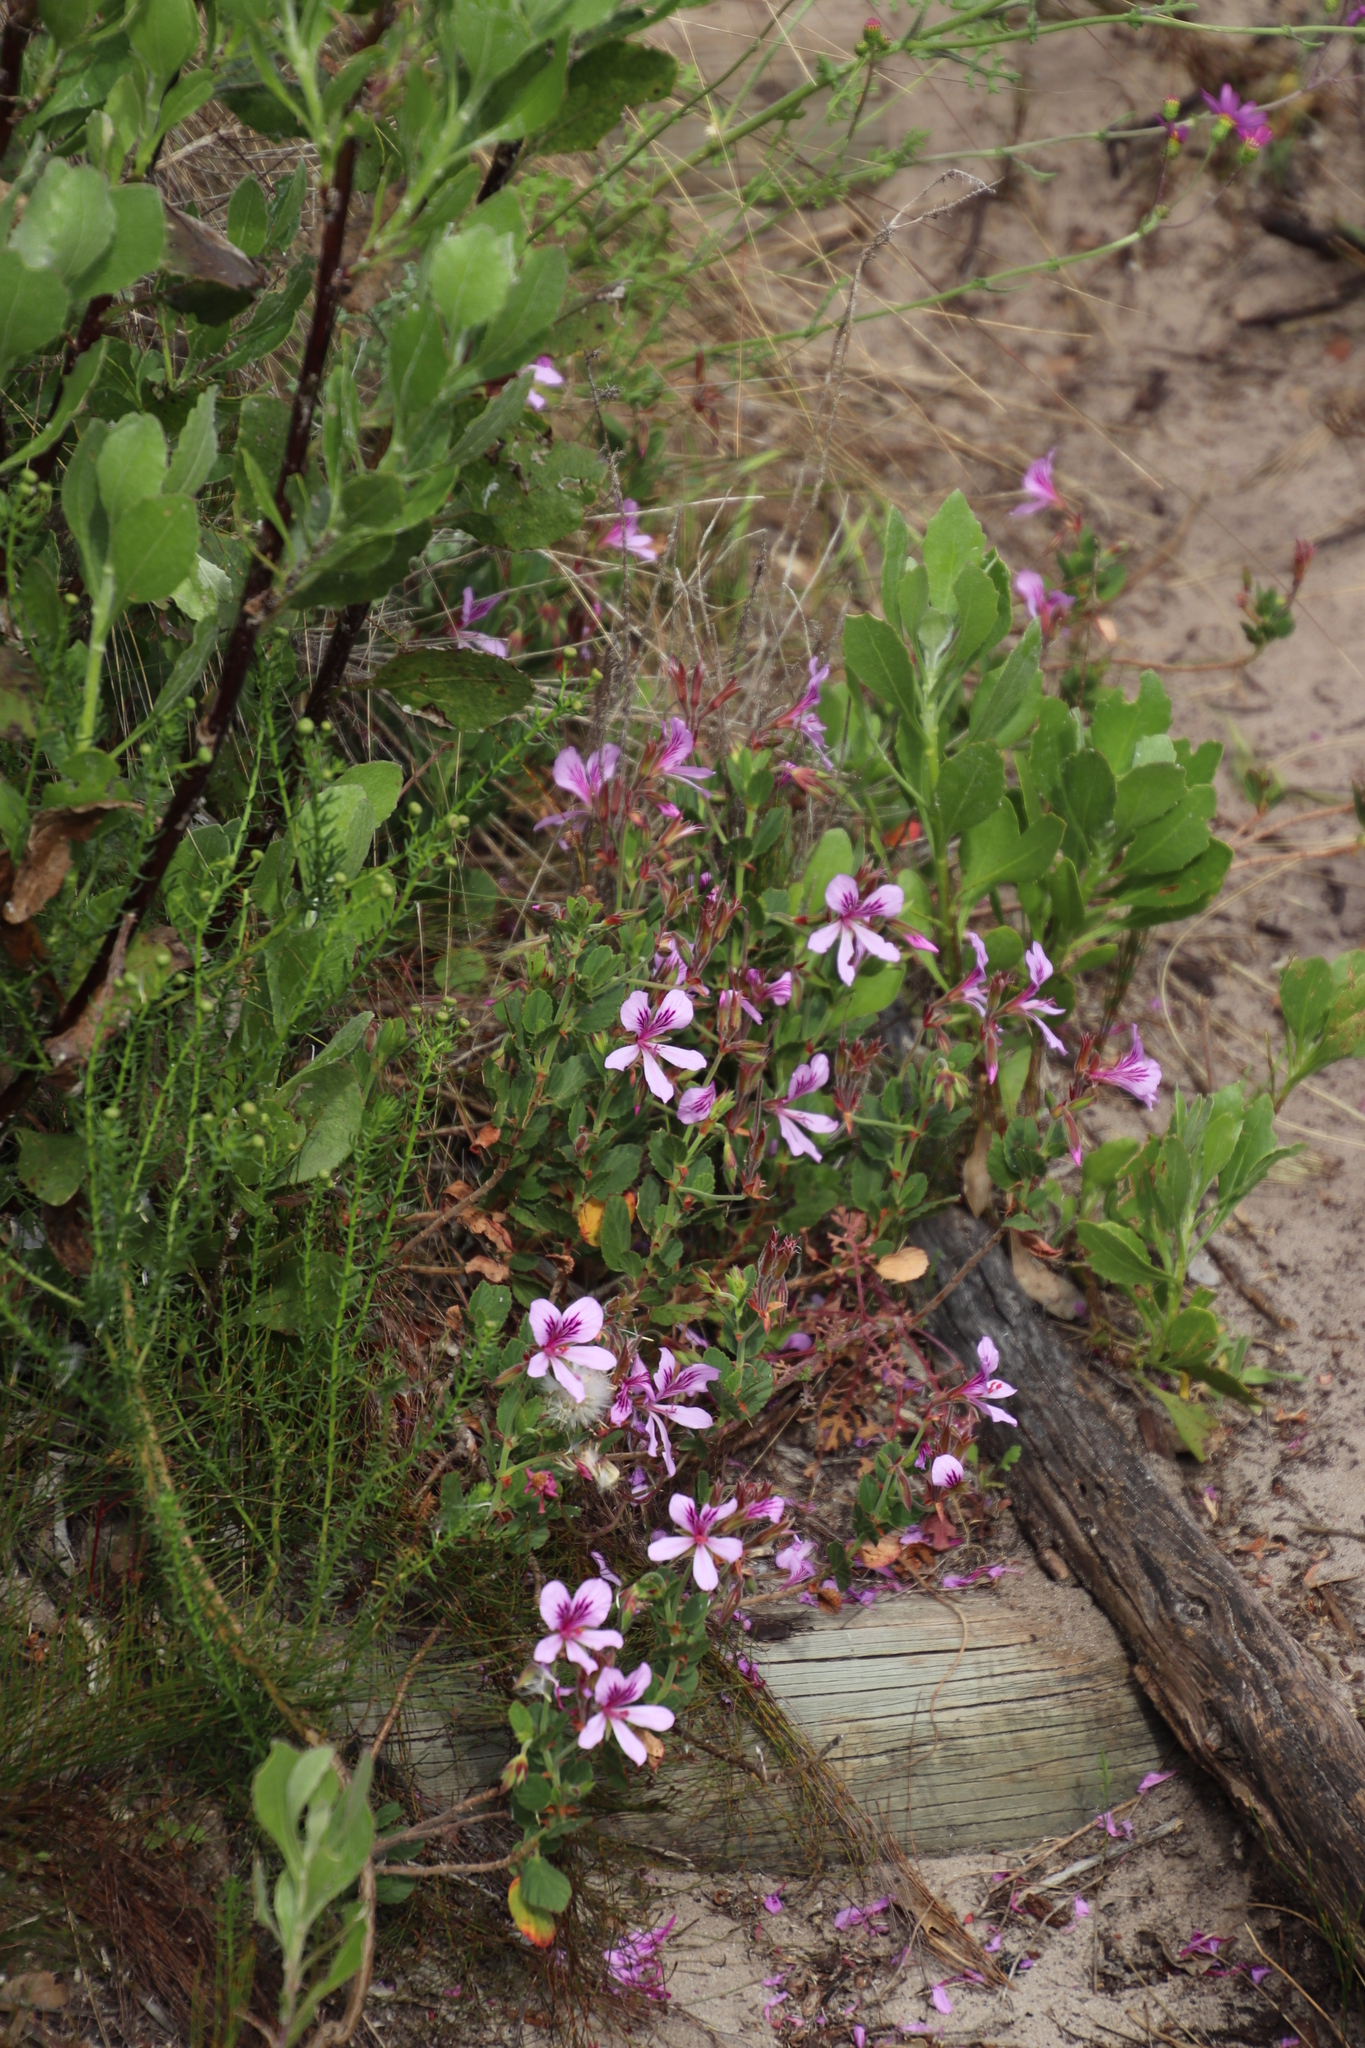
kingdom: Plantae
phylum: Tracheophyta
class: Magnoliopsida
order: Geraniales
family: Geraniaceae
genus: Pelargonium
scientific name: Pelargonium betulinum
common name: Birch-leaf pelargonium
